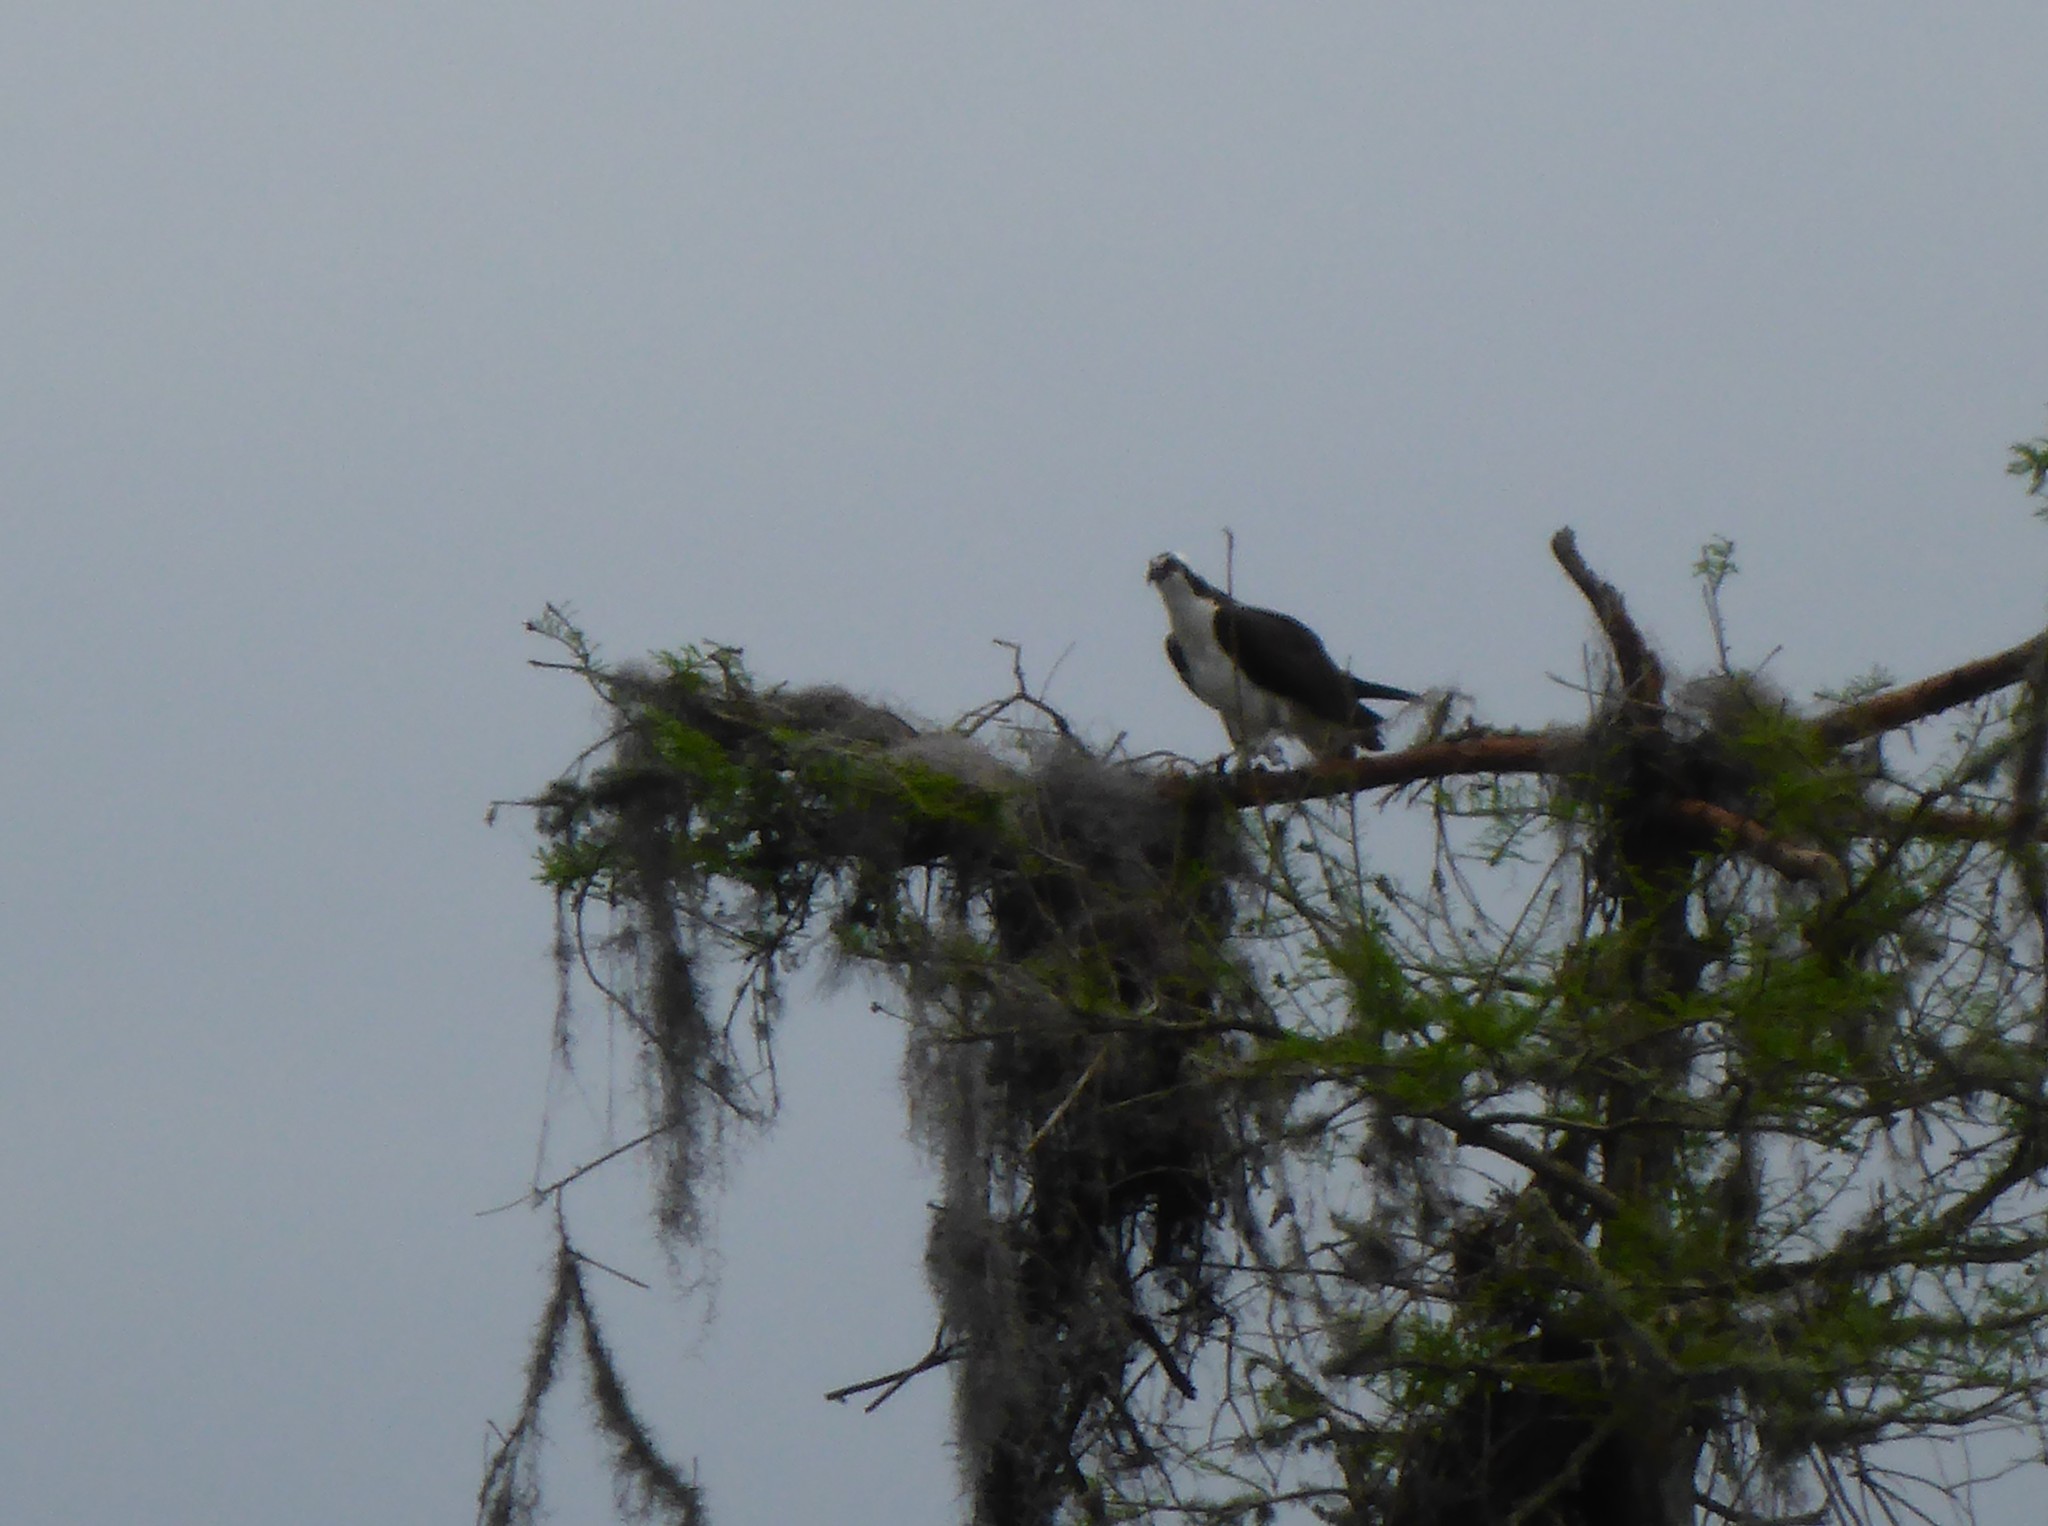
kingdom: Animalia
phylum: Chordata
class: Aves
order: Accipitriformes
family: Pandionidae
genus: Pandion
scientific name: Pandion haliaetus
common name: Osprey
